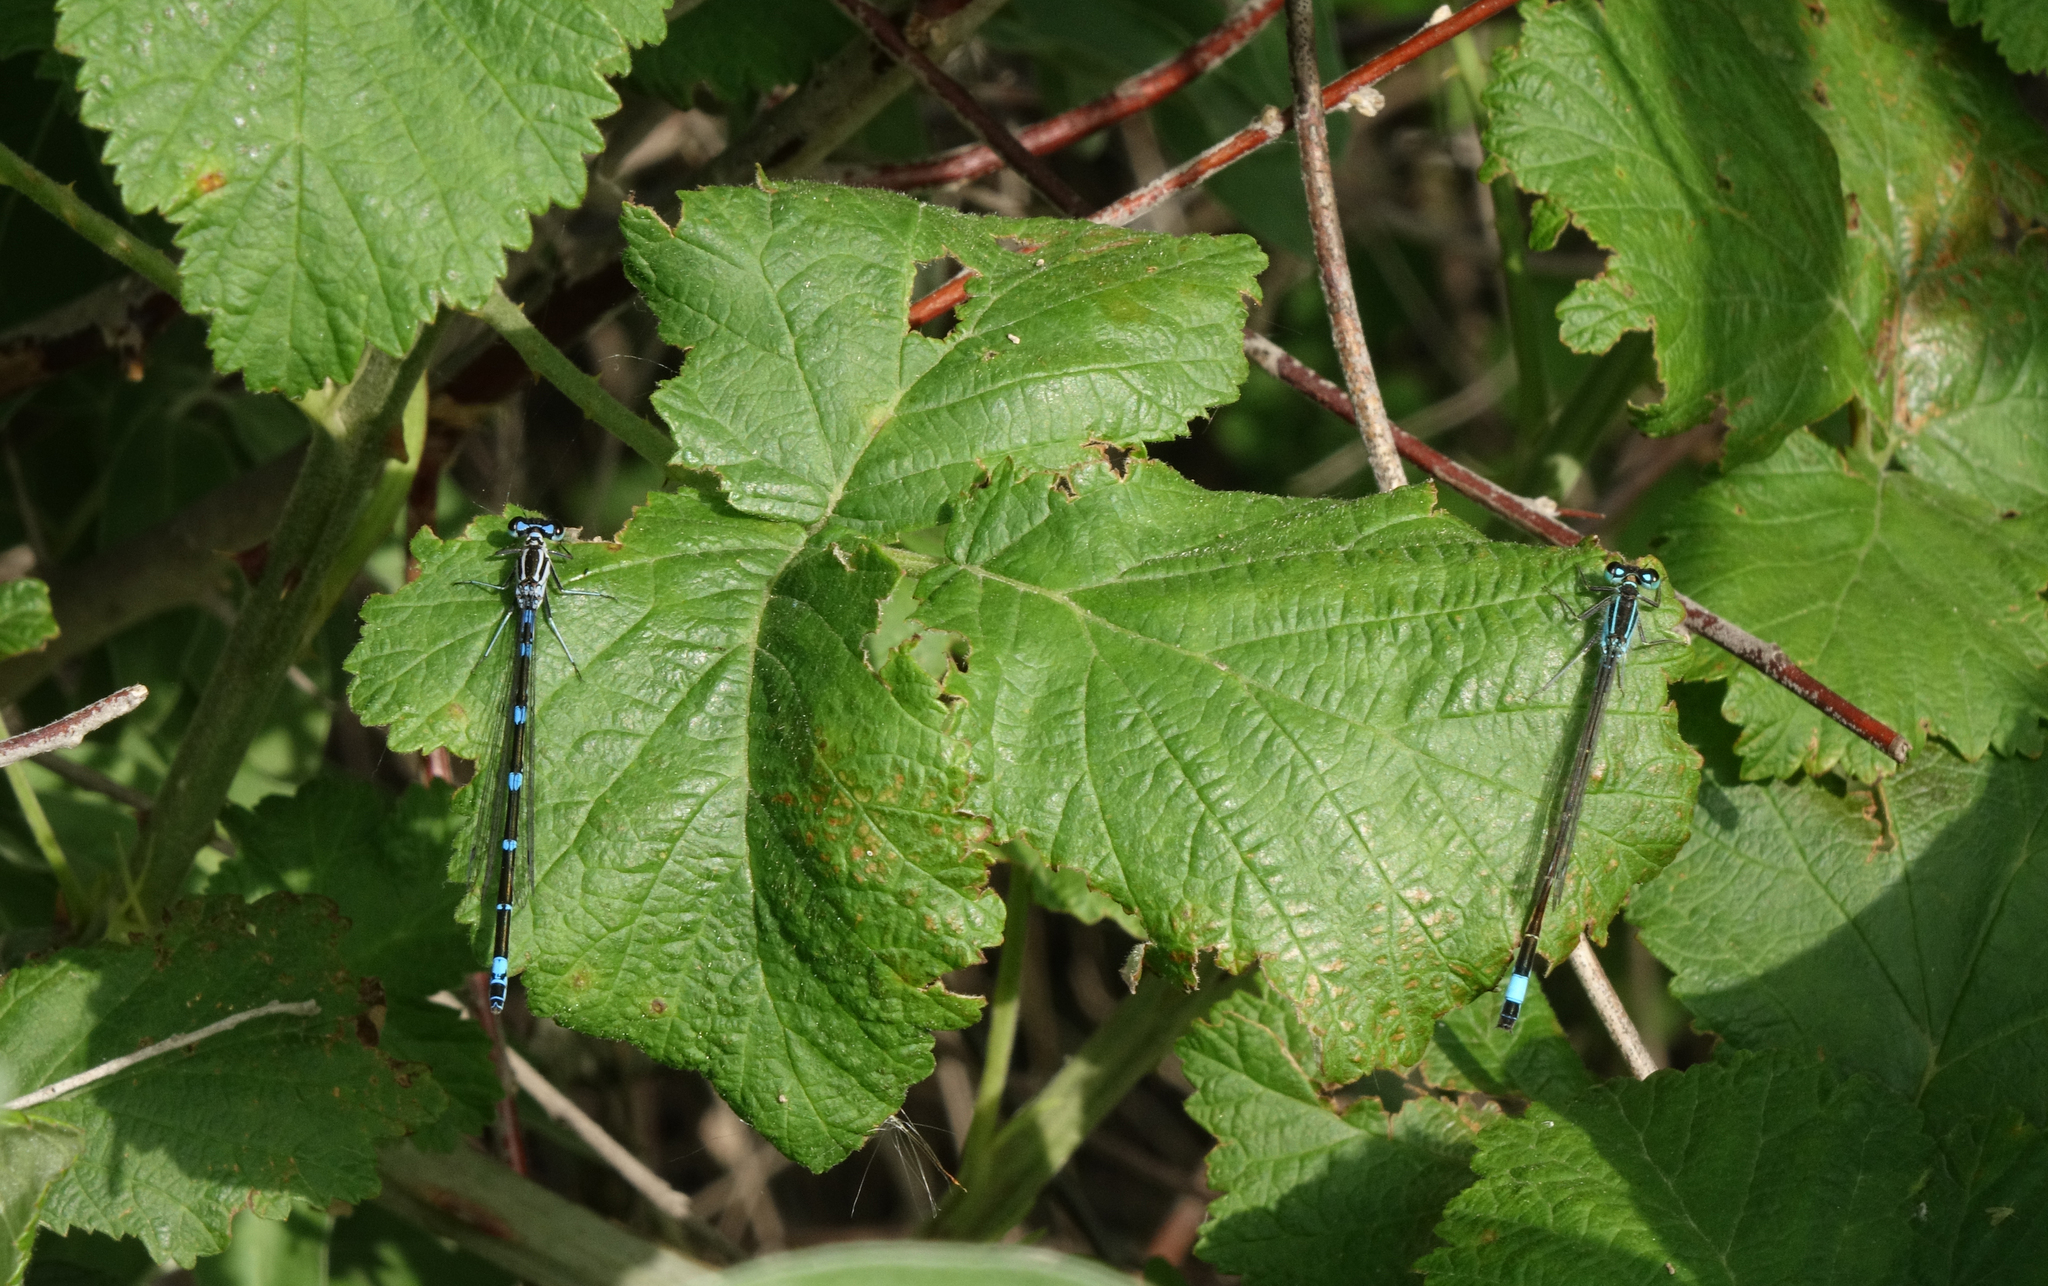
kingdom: Animalia
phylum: Arthropoda
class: Insecta
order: Odonata
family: Coenagrionidae
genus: Coenagrion
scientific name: Coenagrion pulchellum
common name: Variable bluet
